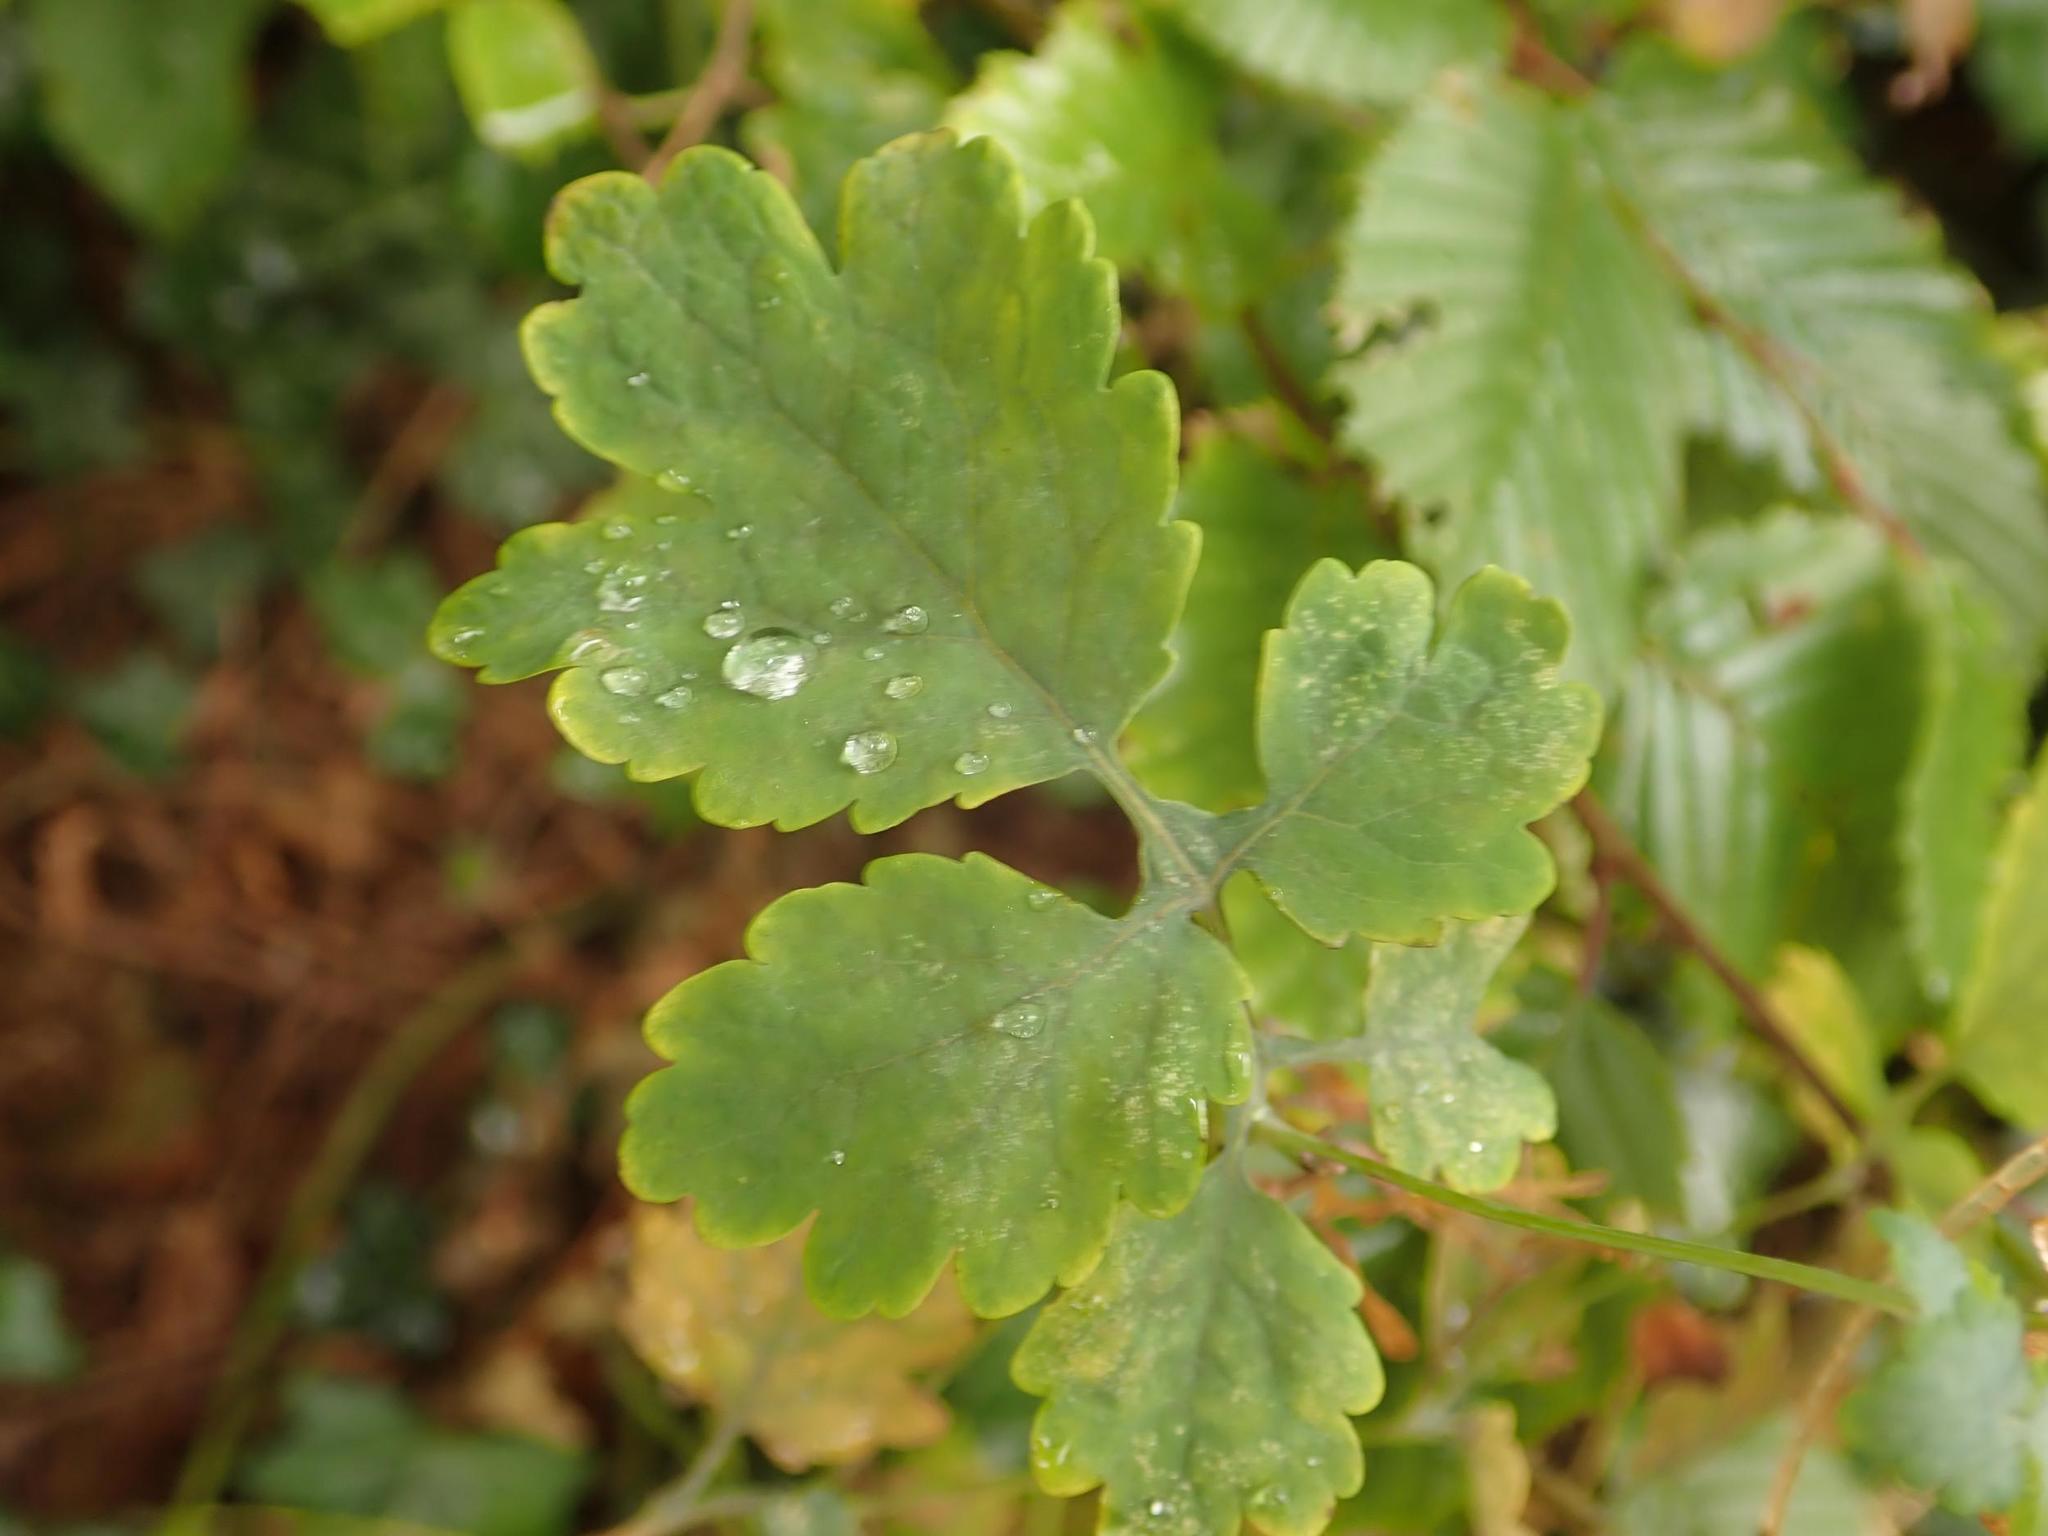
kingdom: Plantae
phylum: Tracheophyta
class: Magnoliopsida
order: Ranunculales
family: Papaveraceae
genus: Chelidonium
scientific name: Chelidonium majus
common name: Greater celandine
